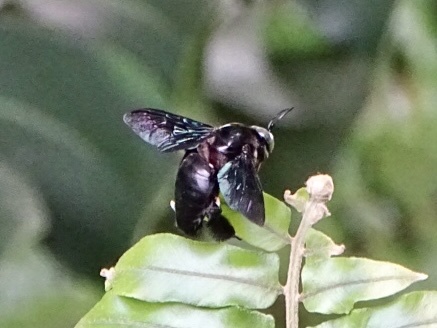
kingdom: Animalia
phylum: Arthropoda
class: Insecta
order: Hymenoptera
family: Apidae
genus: Xylocopa
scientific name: Xylocopa latipes
